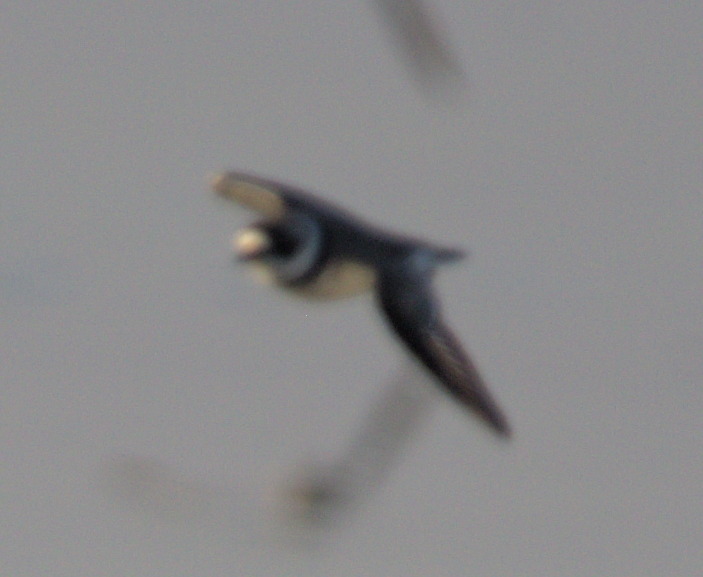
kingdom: Animalia
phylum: Chordata
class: Aves
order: Charadriiformes
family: Charadriidae
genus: Charadrius
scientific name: Charadrius semipalmatus
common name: Semipalmated plover
